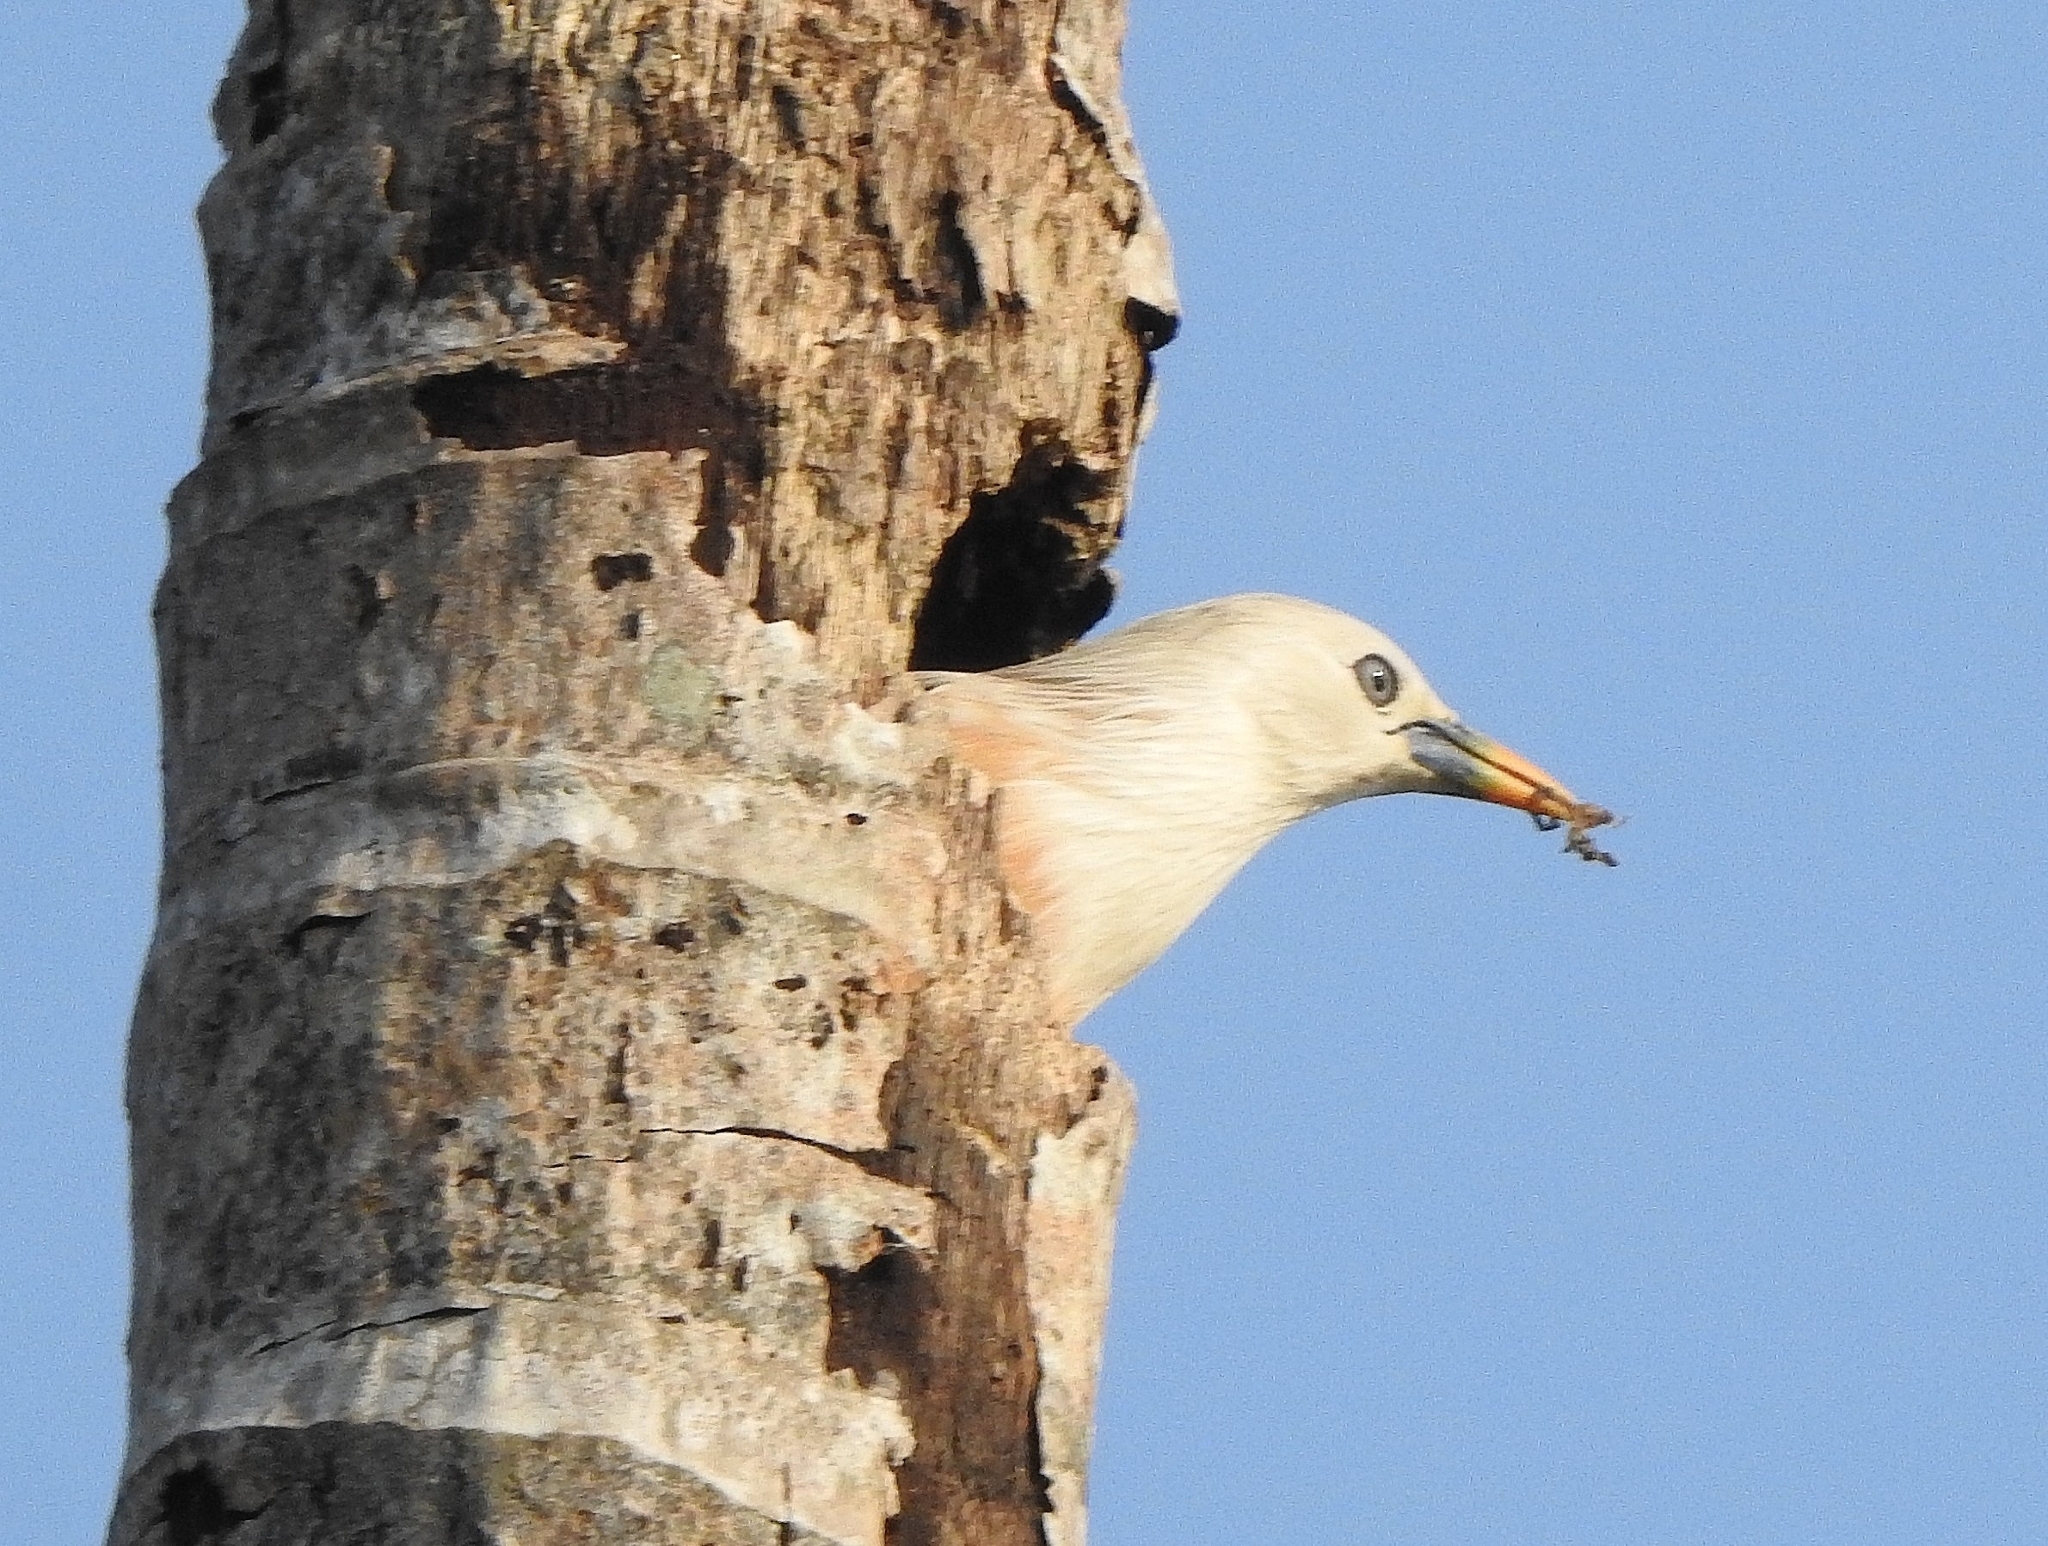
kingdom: Animalia
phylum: Chordata
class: Aves
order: Passeriformes
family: Sturnidae
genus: Sturnia
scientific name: Sturnia blythii
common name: Malabar starling
